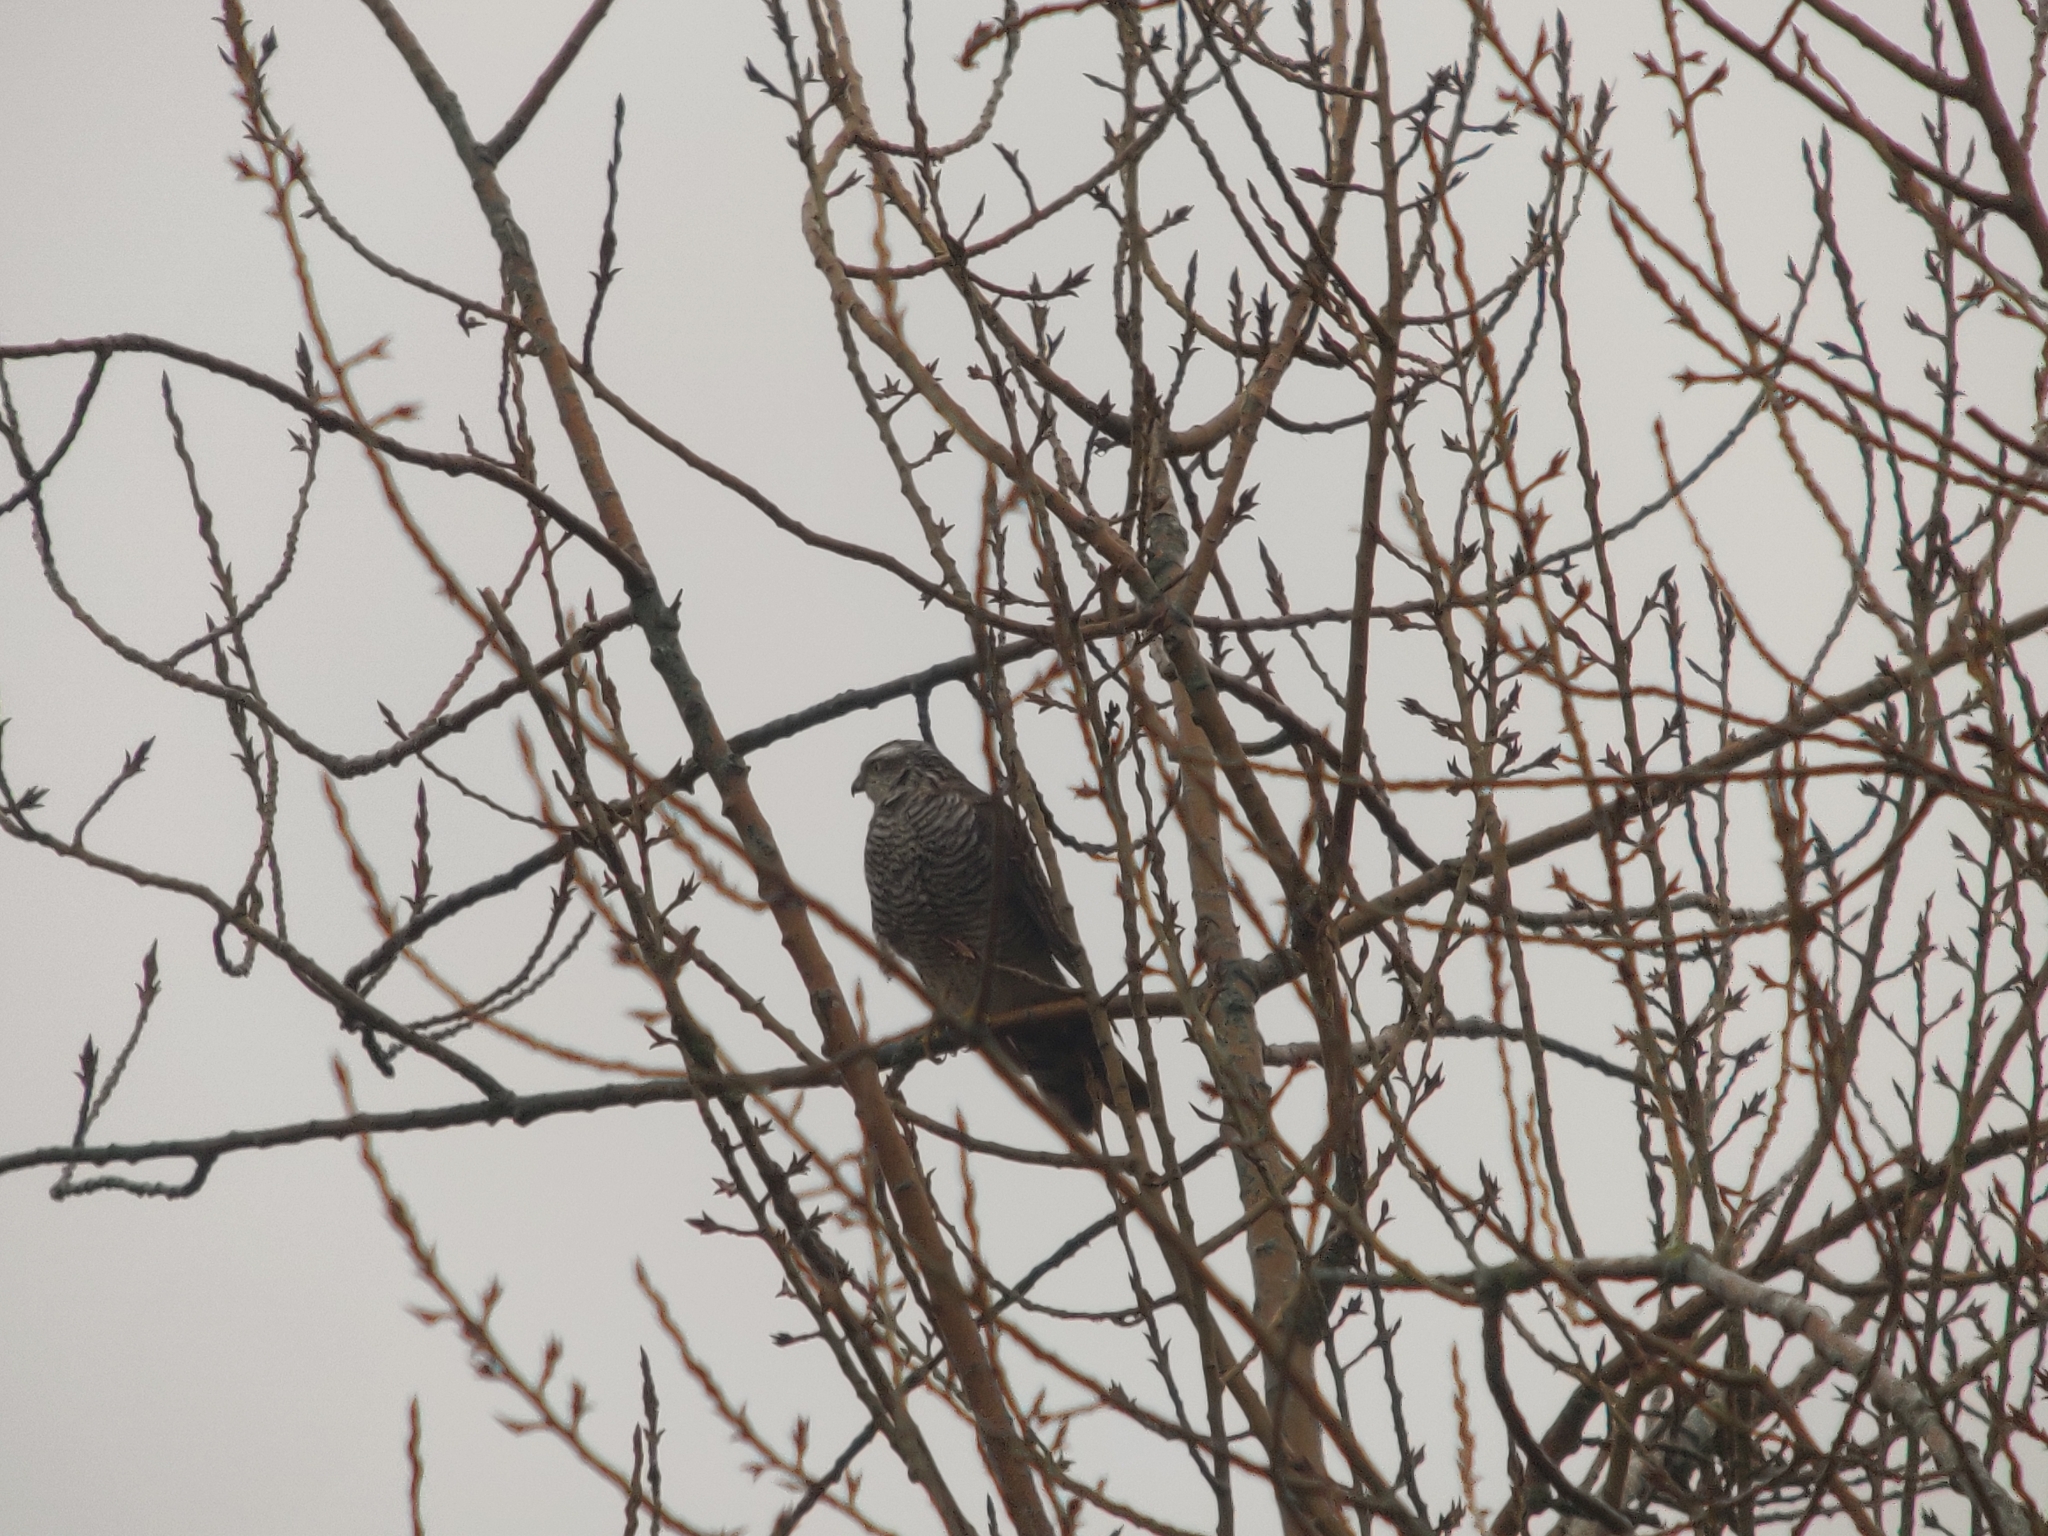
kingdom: Animalia
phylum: Chordata
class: Aves
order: Accipitriformes
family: Accipitridae
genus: Accipiter
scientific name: Accipiter nisus
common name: Eurasian sparrowhawk
